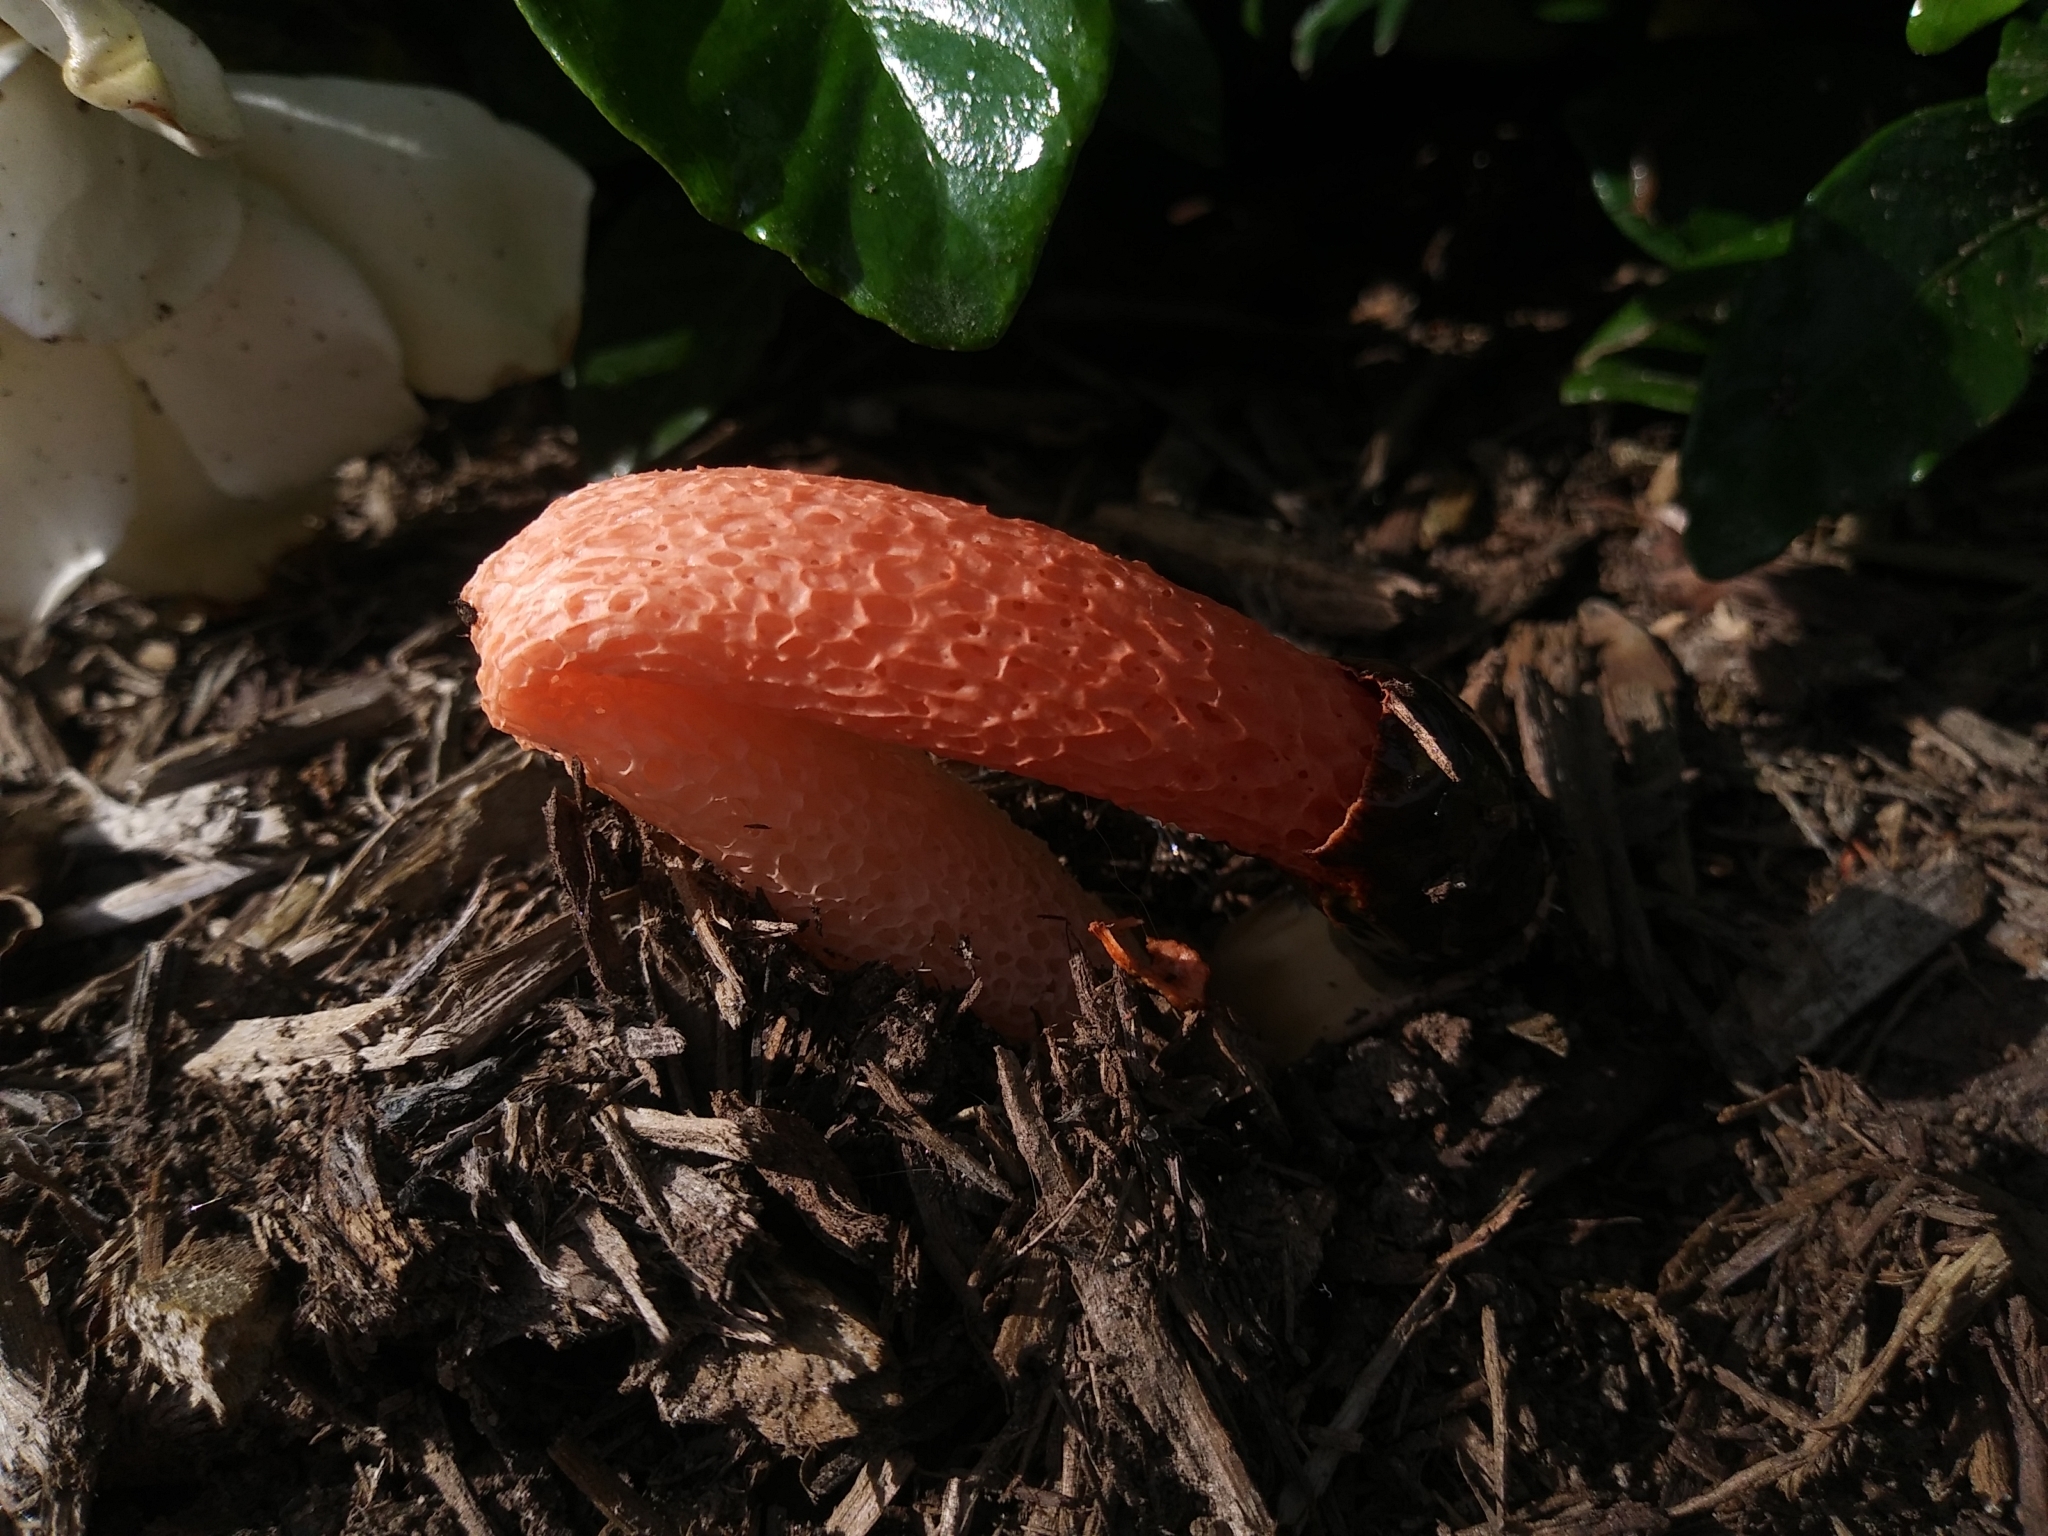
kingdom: Fungi
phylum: Basidiomycota
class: Agaricomycetes
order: Phallales
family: Phallaceae
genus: Phallus
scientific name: Phallus rugulosus
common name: Wrinkly stinkhorn
